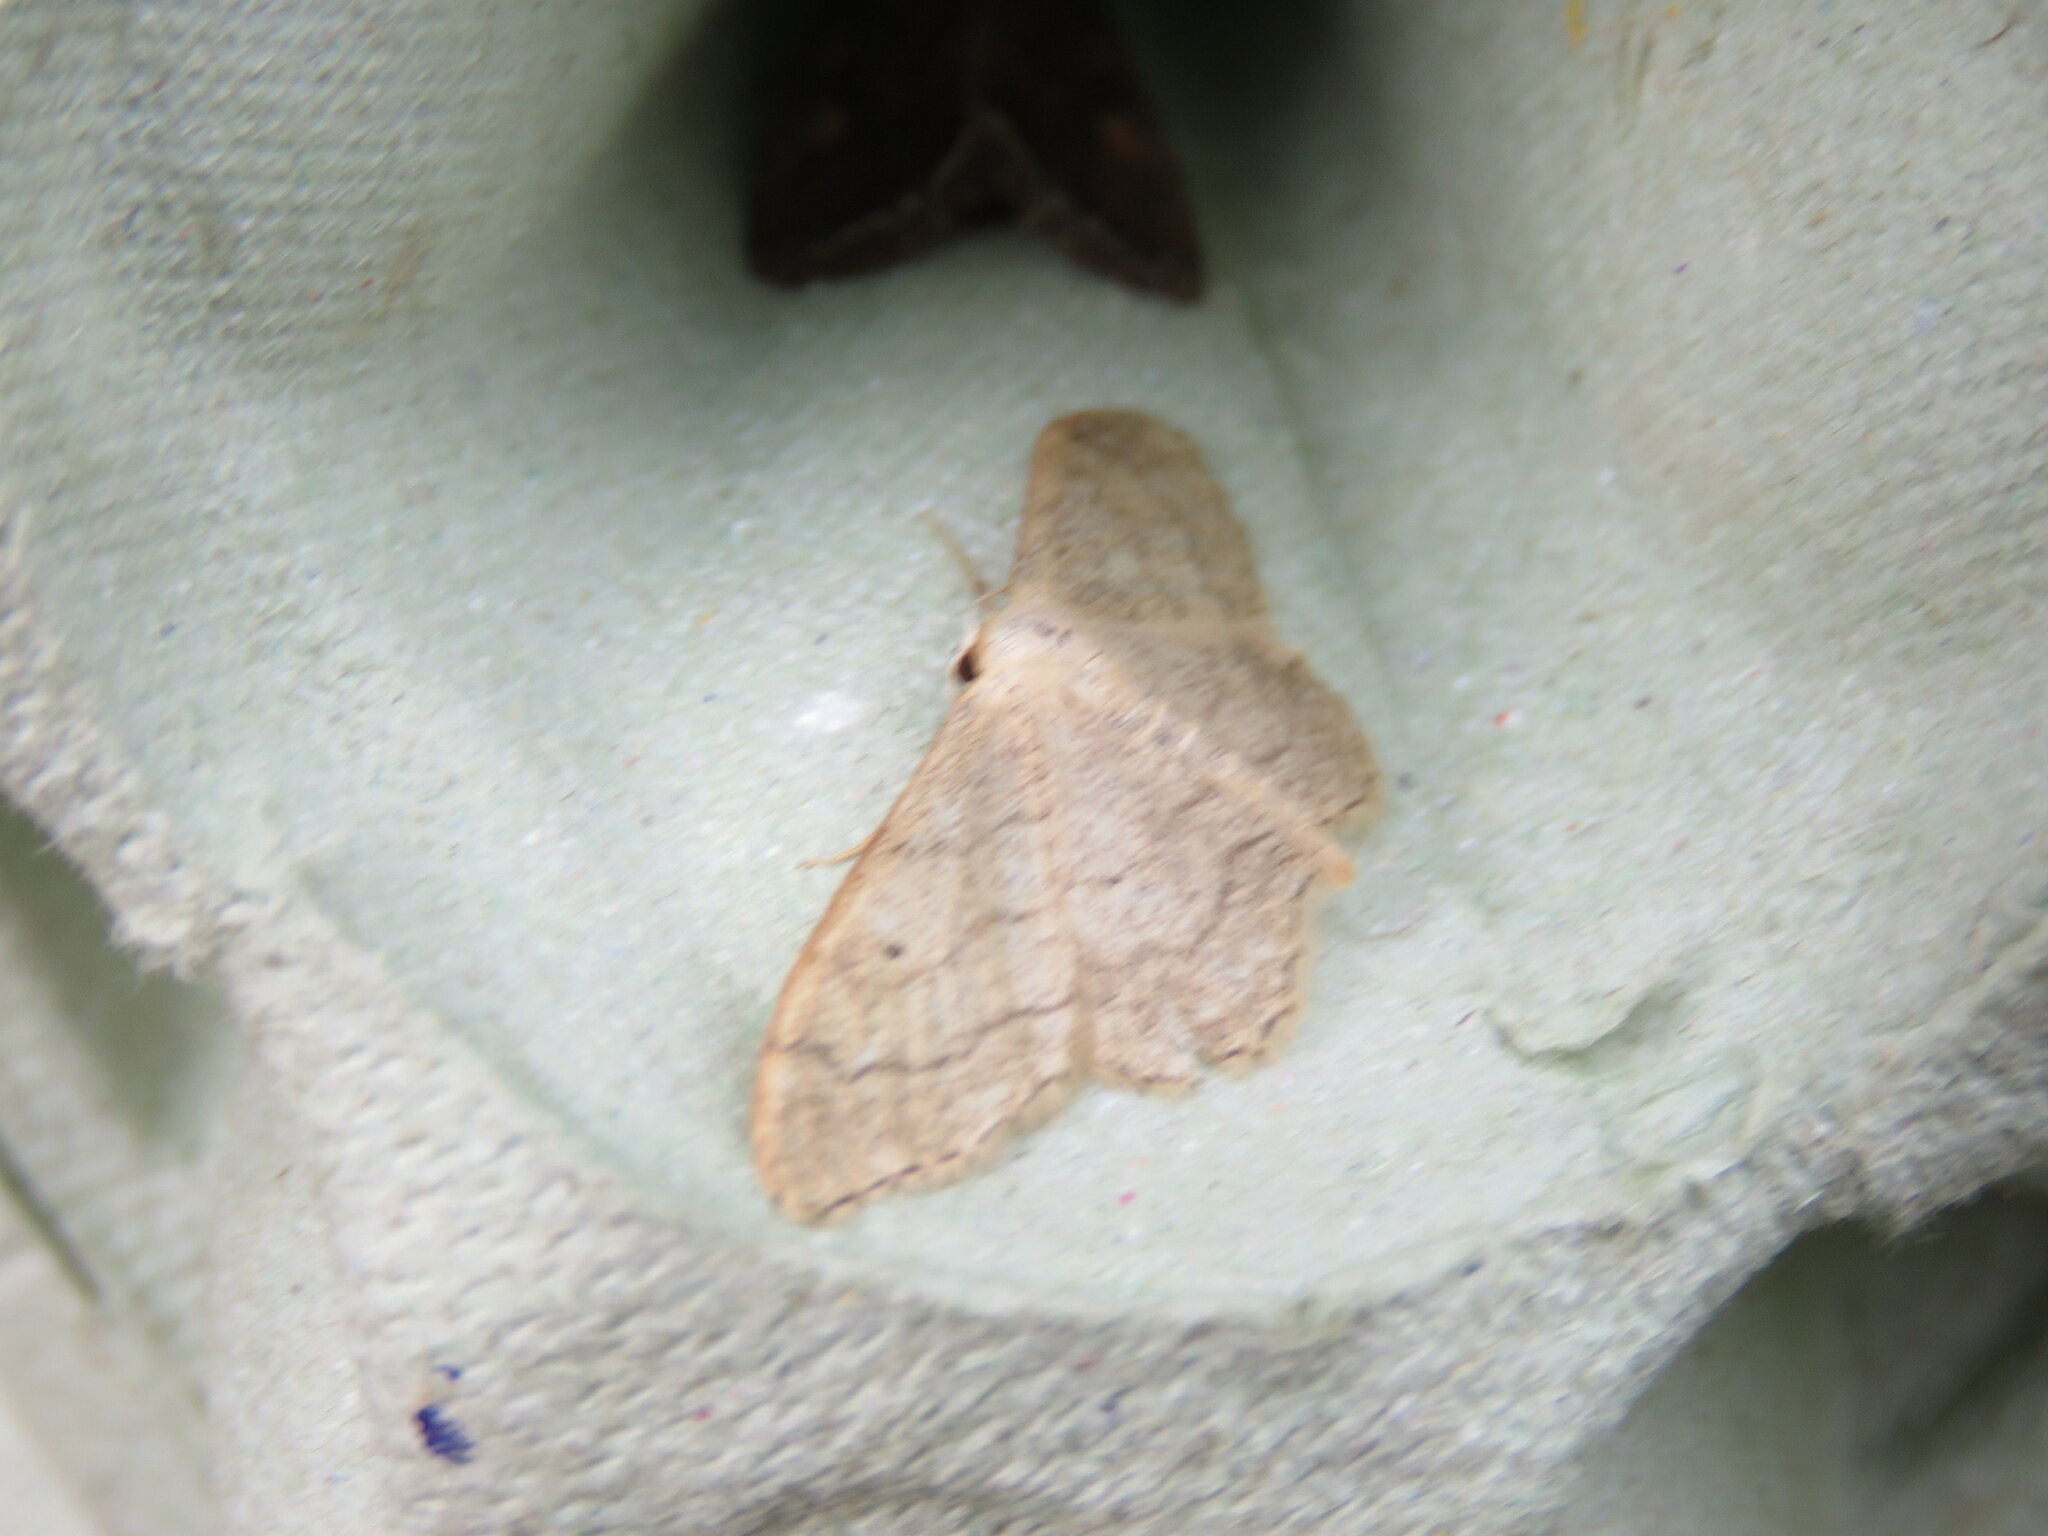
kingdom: Animalia
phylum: Arthropoda
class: Insecta
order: Lepidoptera
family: Geometridae
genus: Idaea
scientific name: Idaea aversata
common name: Riband wave
